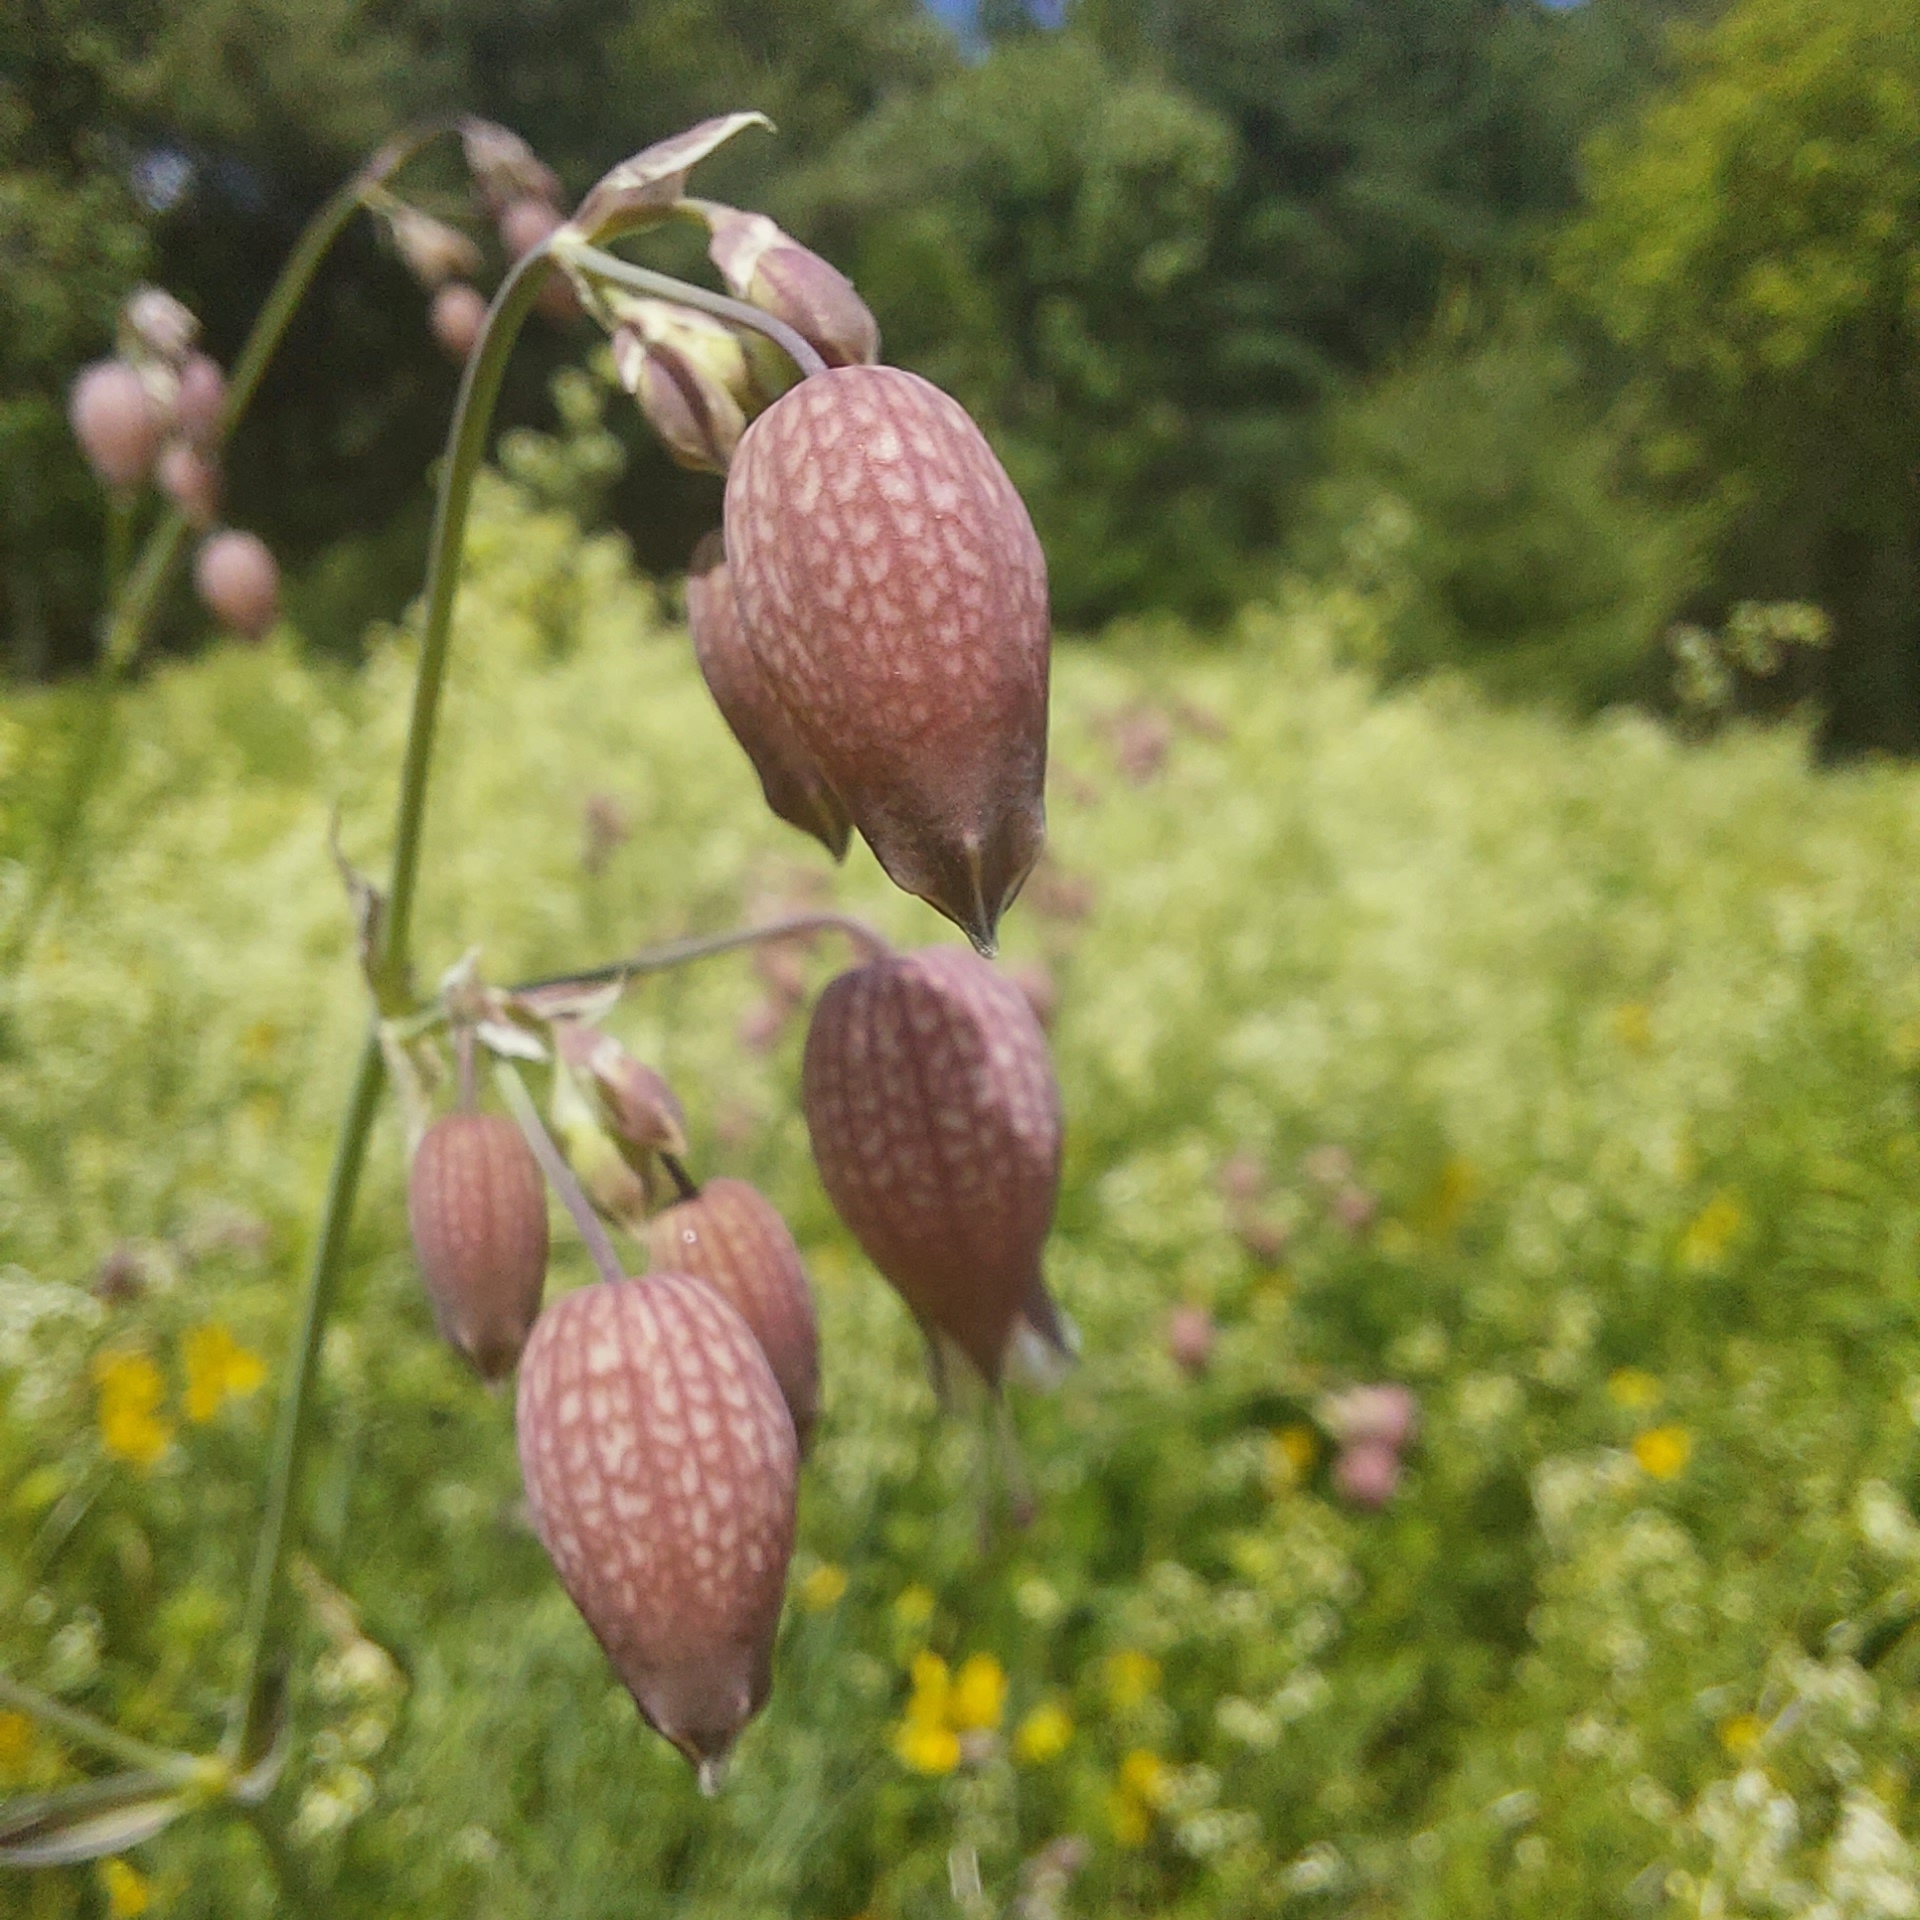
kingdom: Plantae
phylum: Tracheophyta
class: Magnoliopsida
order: Caryophyllales
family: Caryophyllaceae
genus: Silene
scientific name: Silene vulgaris
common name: Bladder campion
